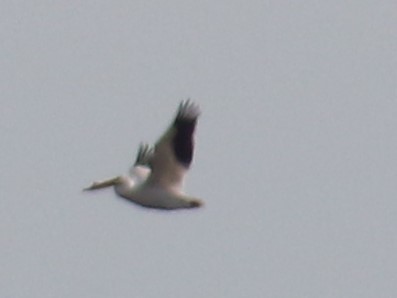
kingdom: Animalia
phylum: Chordata
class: Aves
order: Pelecaniformes
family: Pelecanidae
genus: Pelecanus
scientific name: Pelecanus erythrorhynchos
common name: American white pelican
